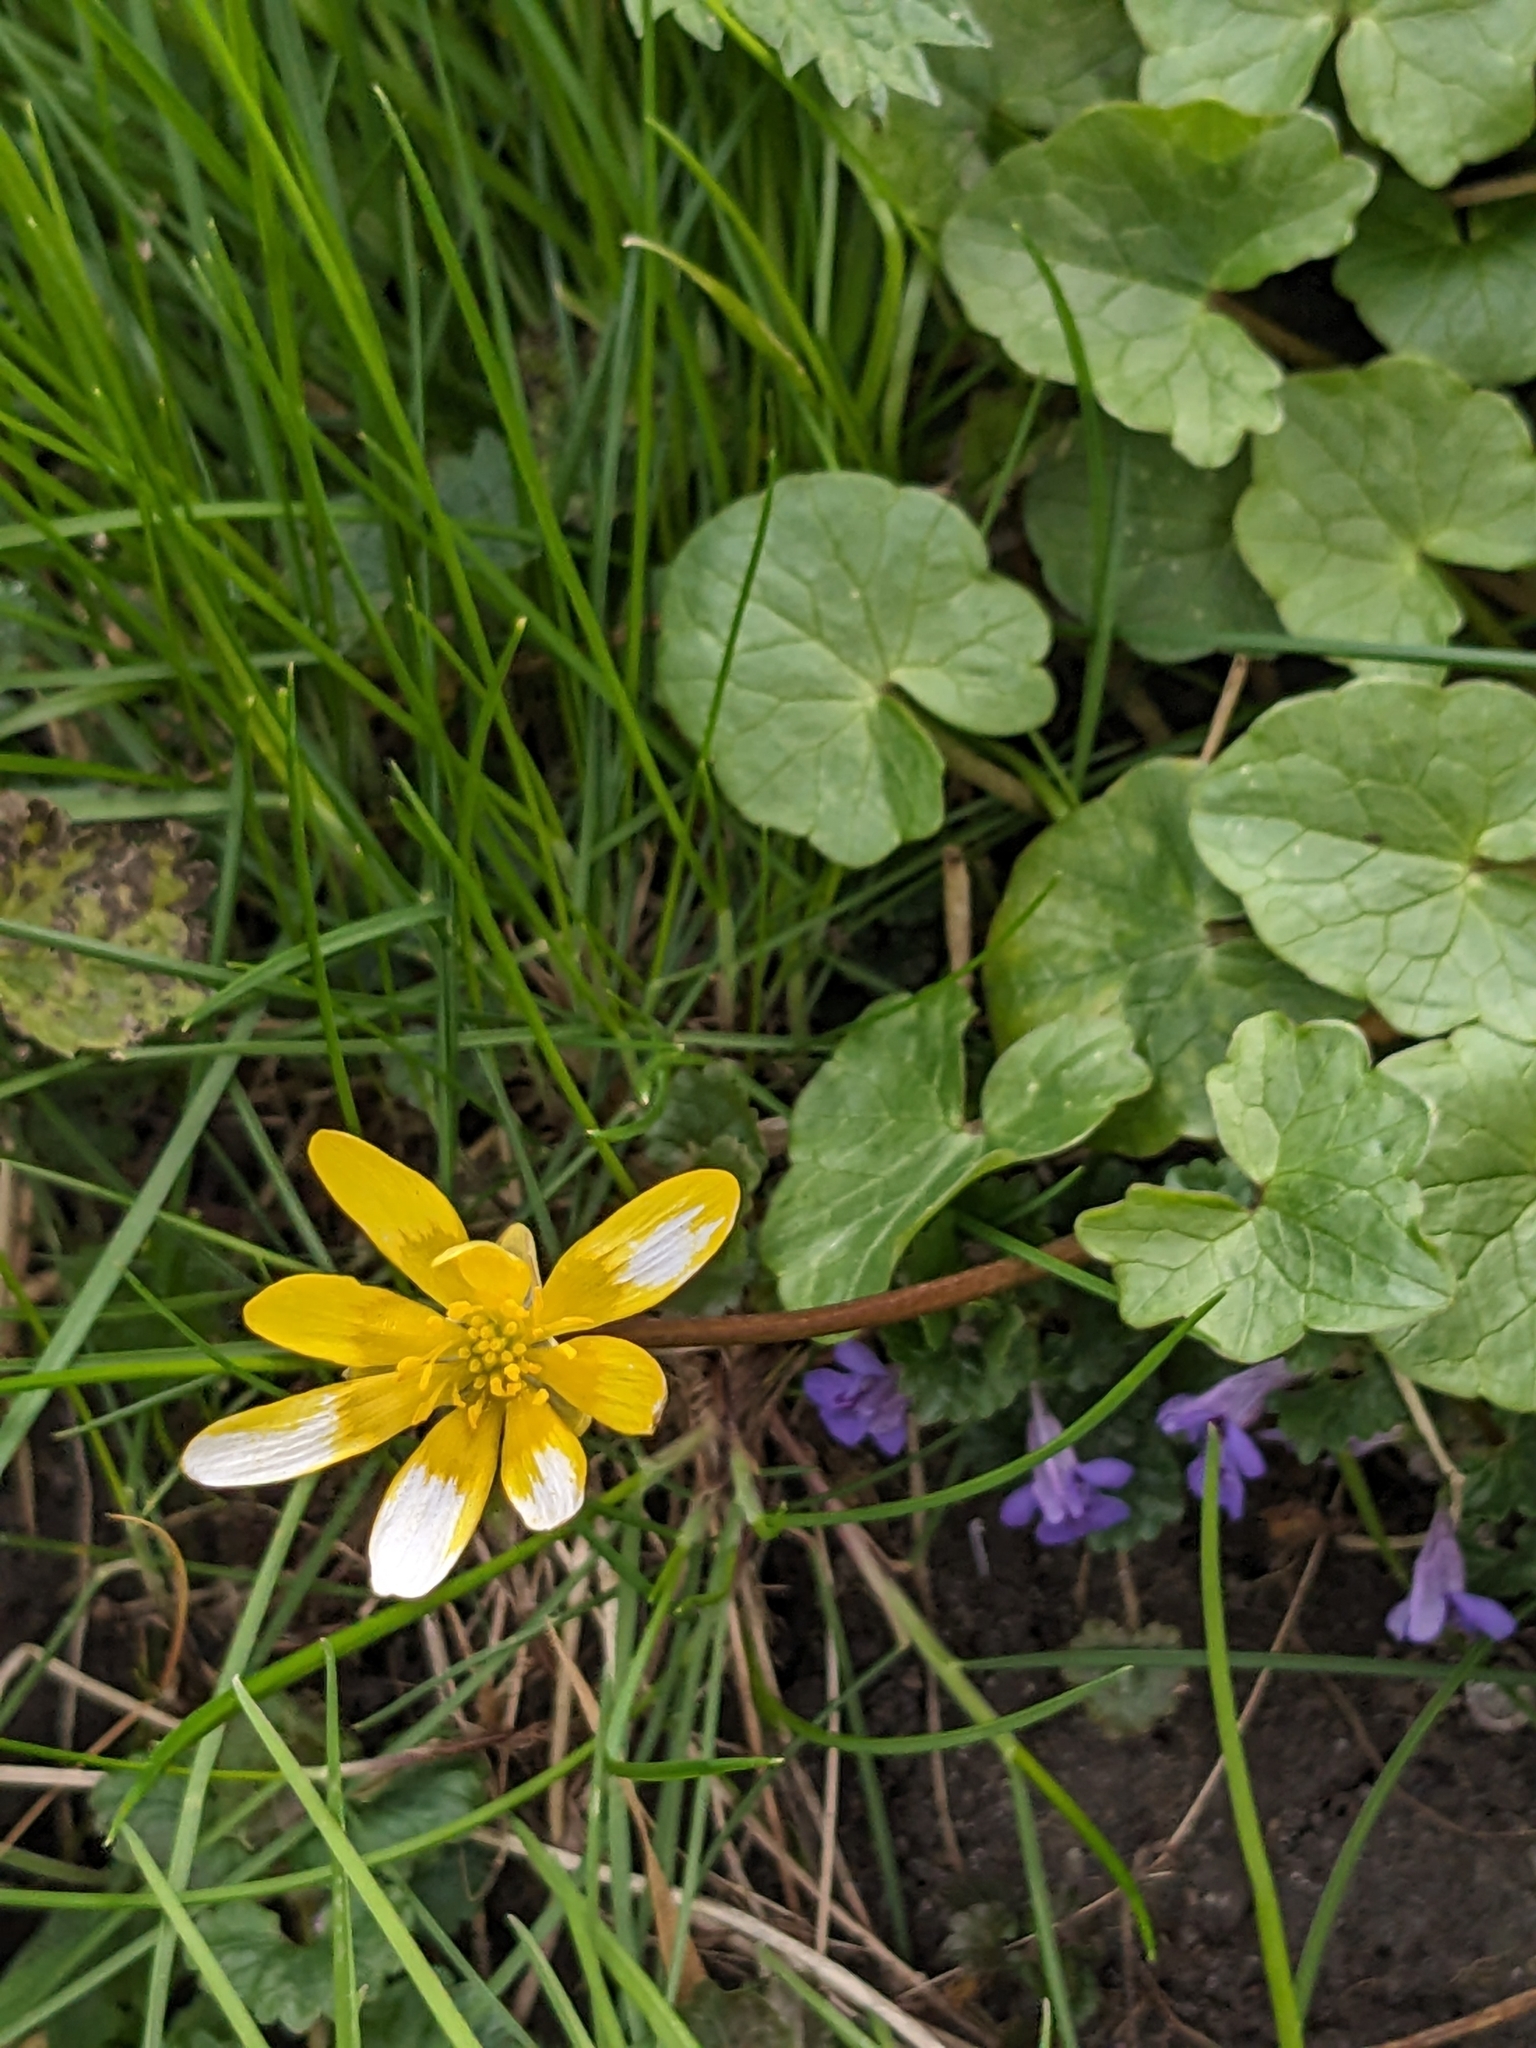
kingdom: Plantae
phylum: Tracheophyta
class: Magnoliopsida
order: Ranunculales
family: Ranunculaceae
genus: Ficaria
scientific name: Ficaria verna
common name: Lesser celandine
